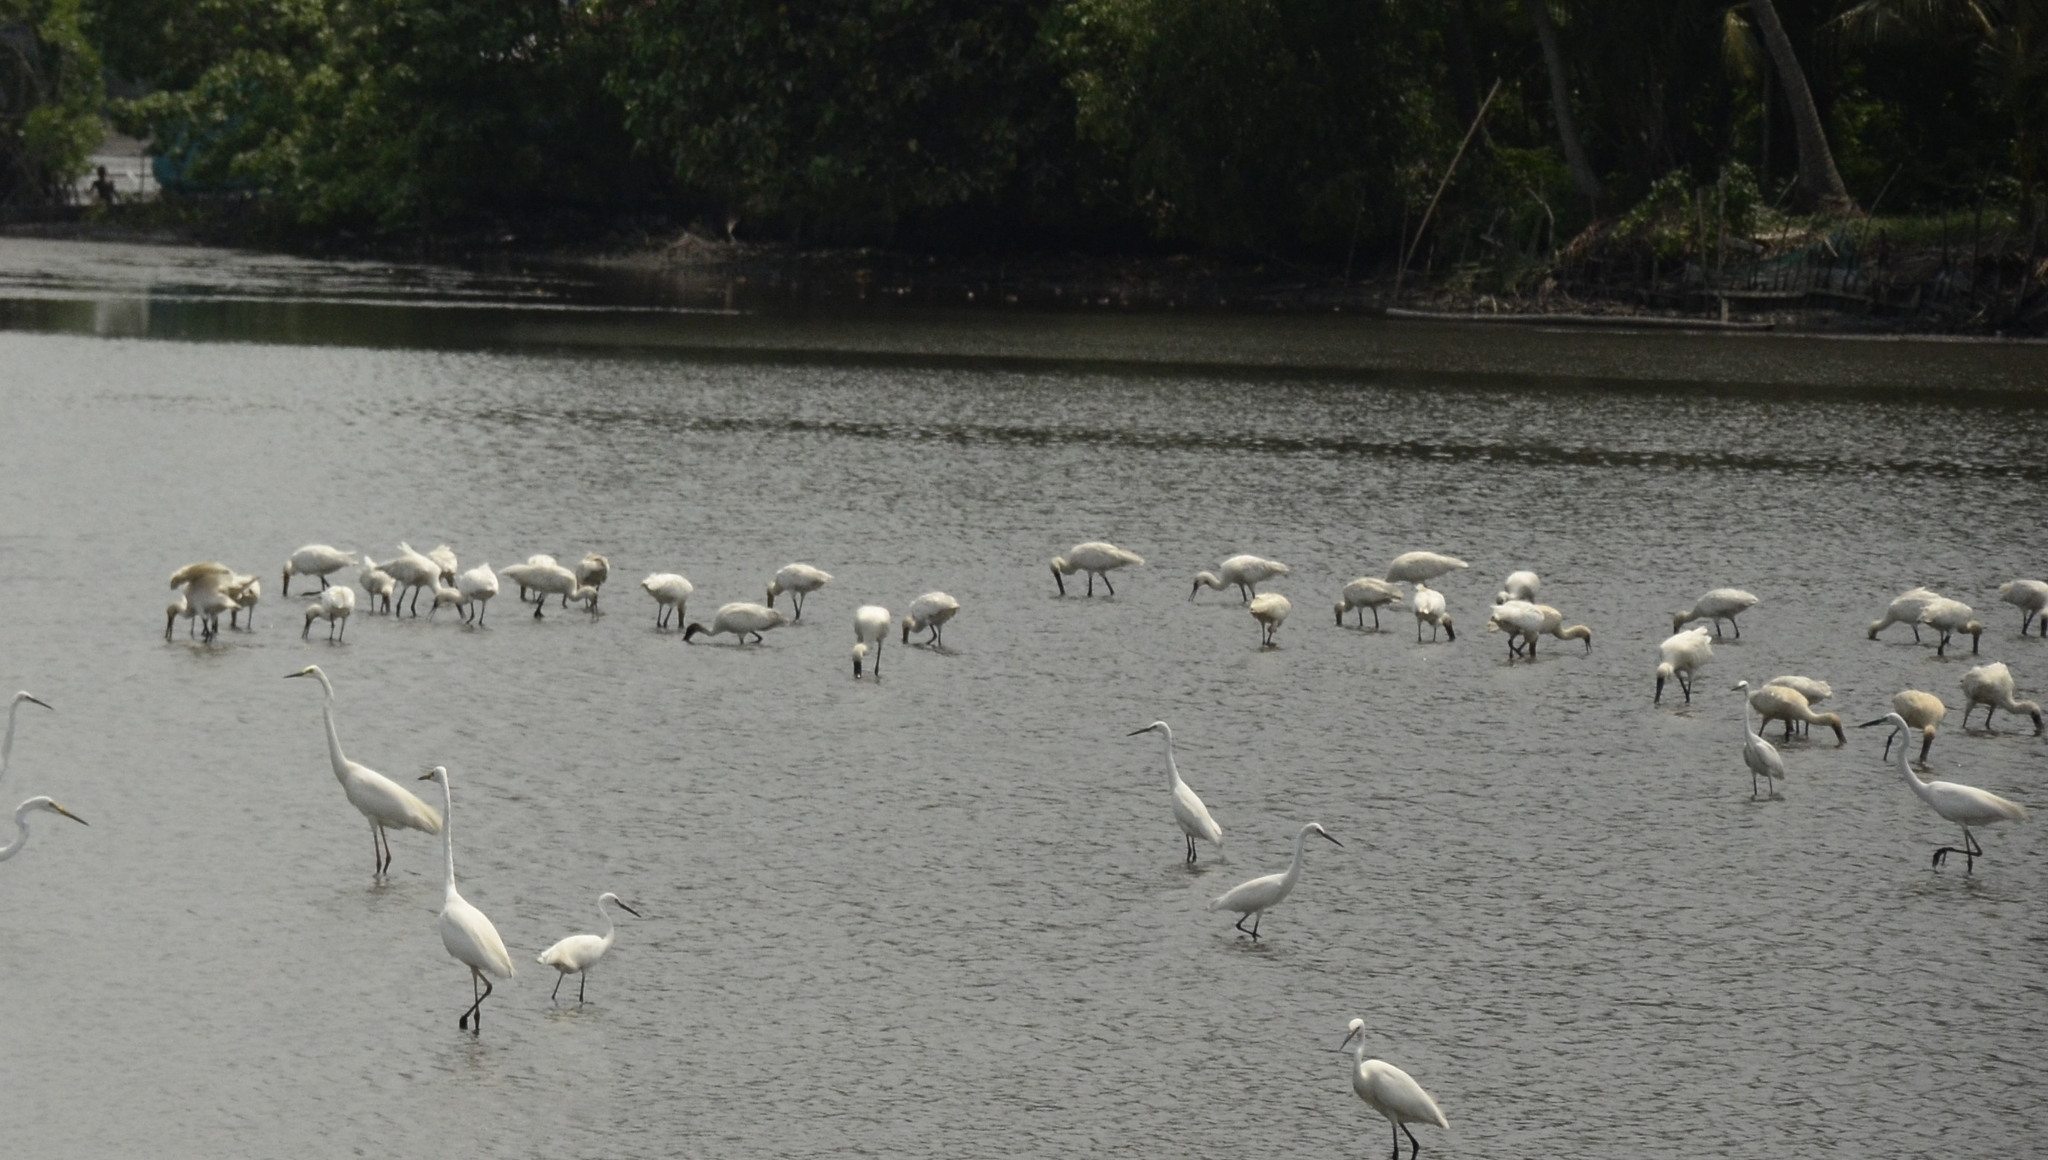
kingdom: Animalia
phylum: Chordata
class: Aves
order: Pelecaniformes
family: Threskiornithidae
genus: Platalea
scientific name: Platalea leucorodia
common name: Eurasian spoonbill
